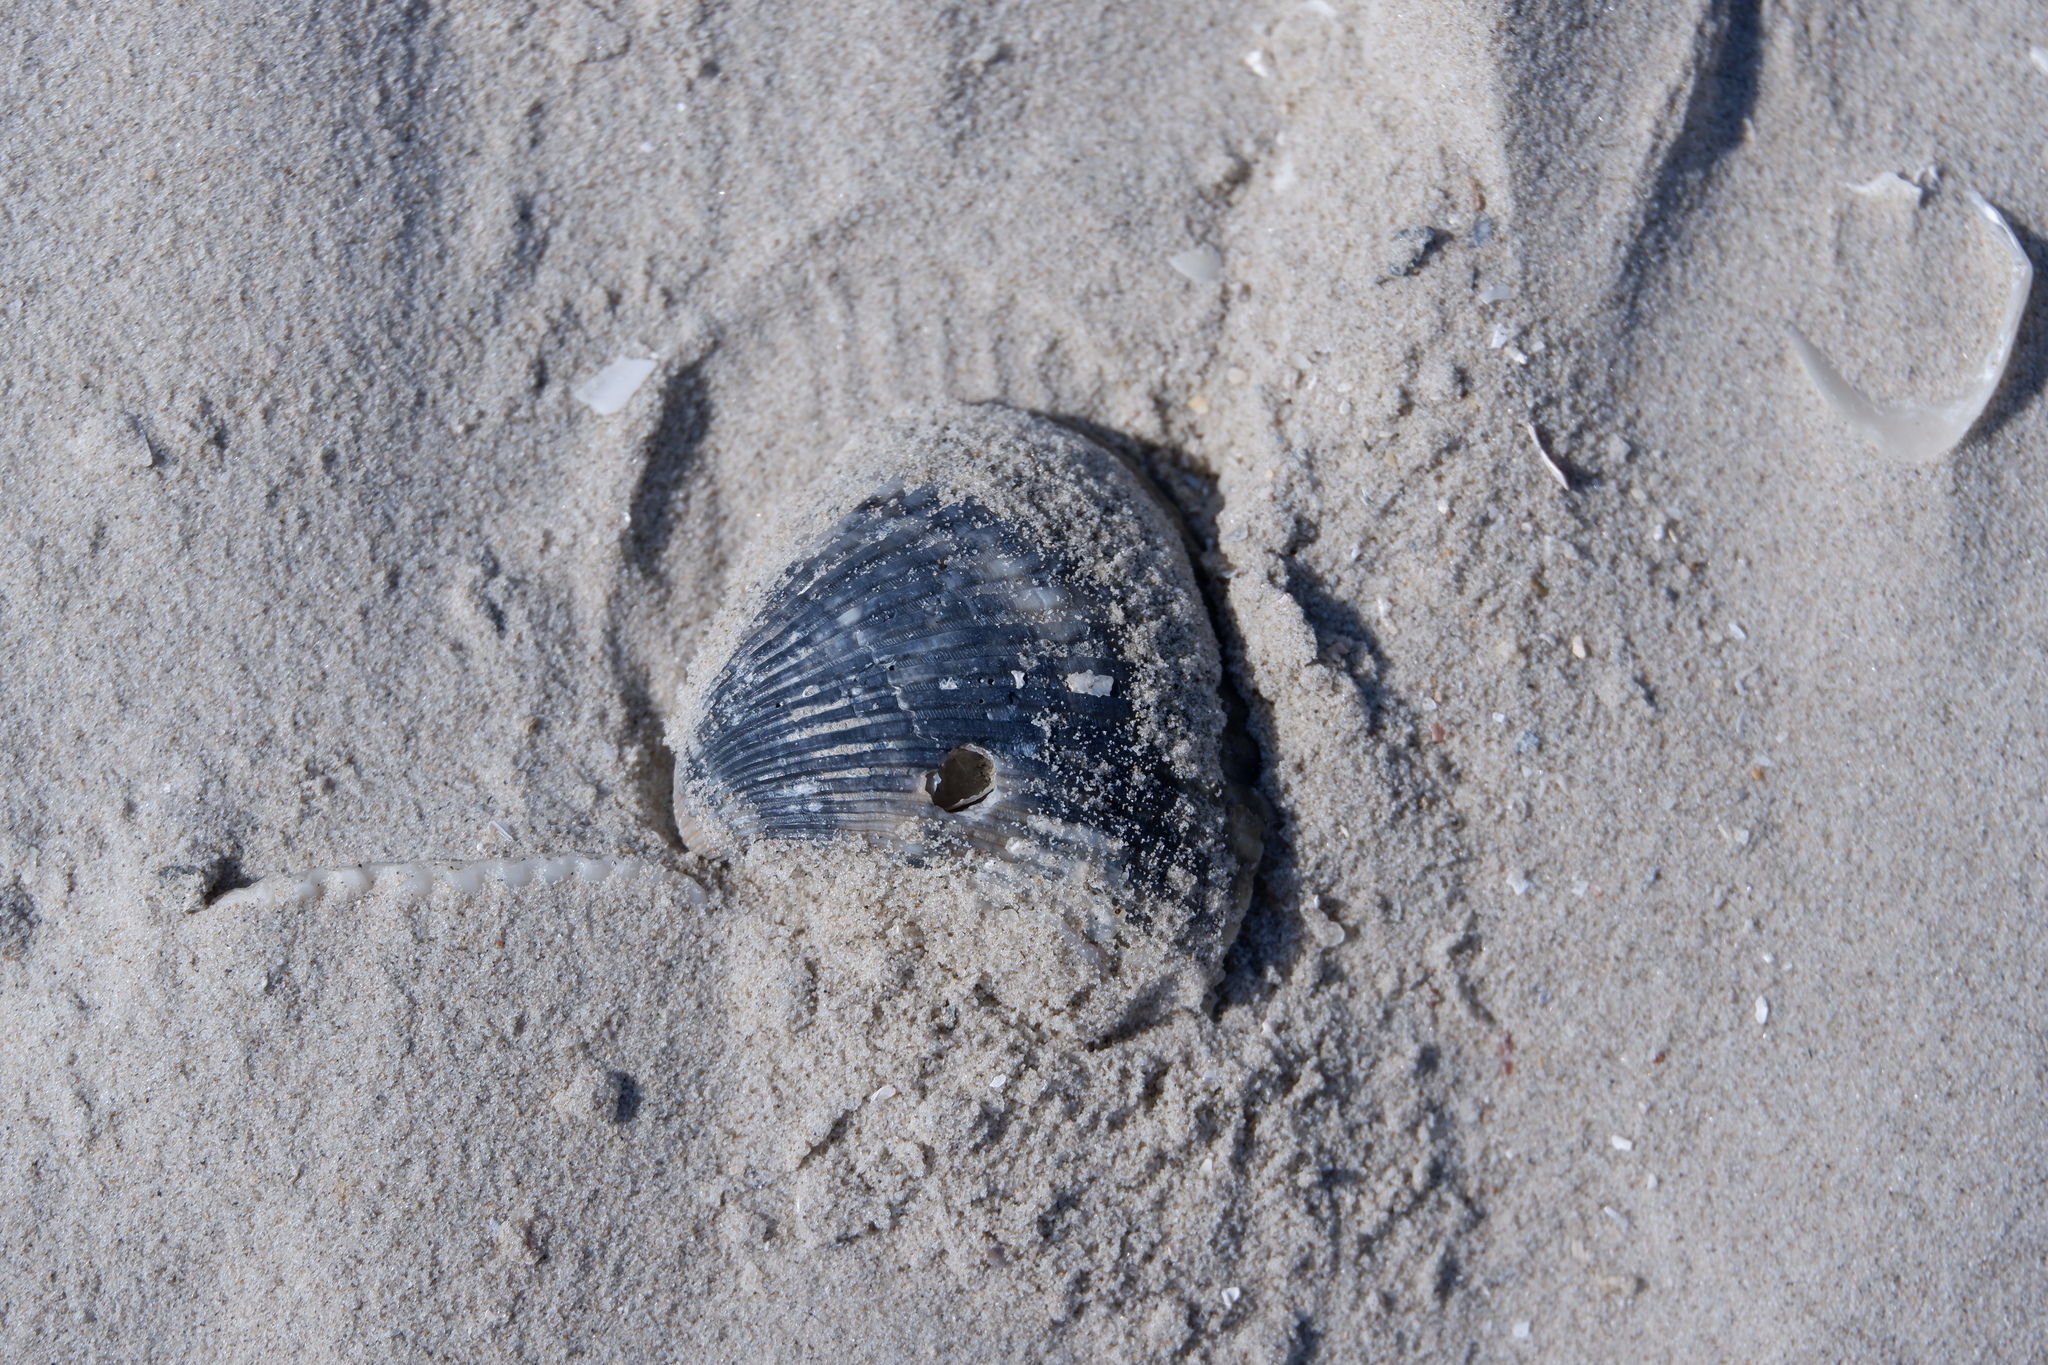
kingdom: Animalia
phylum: Mollusca
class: Bivalvia
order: Arcida
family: Noetiidae
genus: Noetia
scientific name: Noetia ponderosa
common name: Ponderous ark
